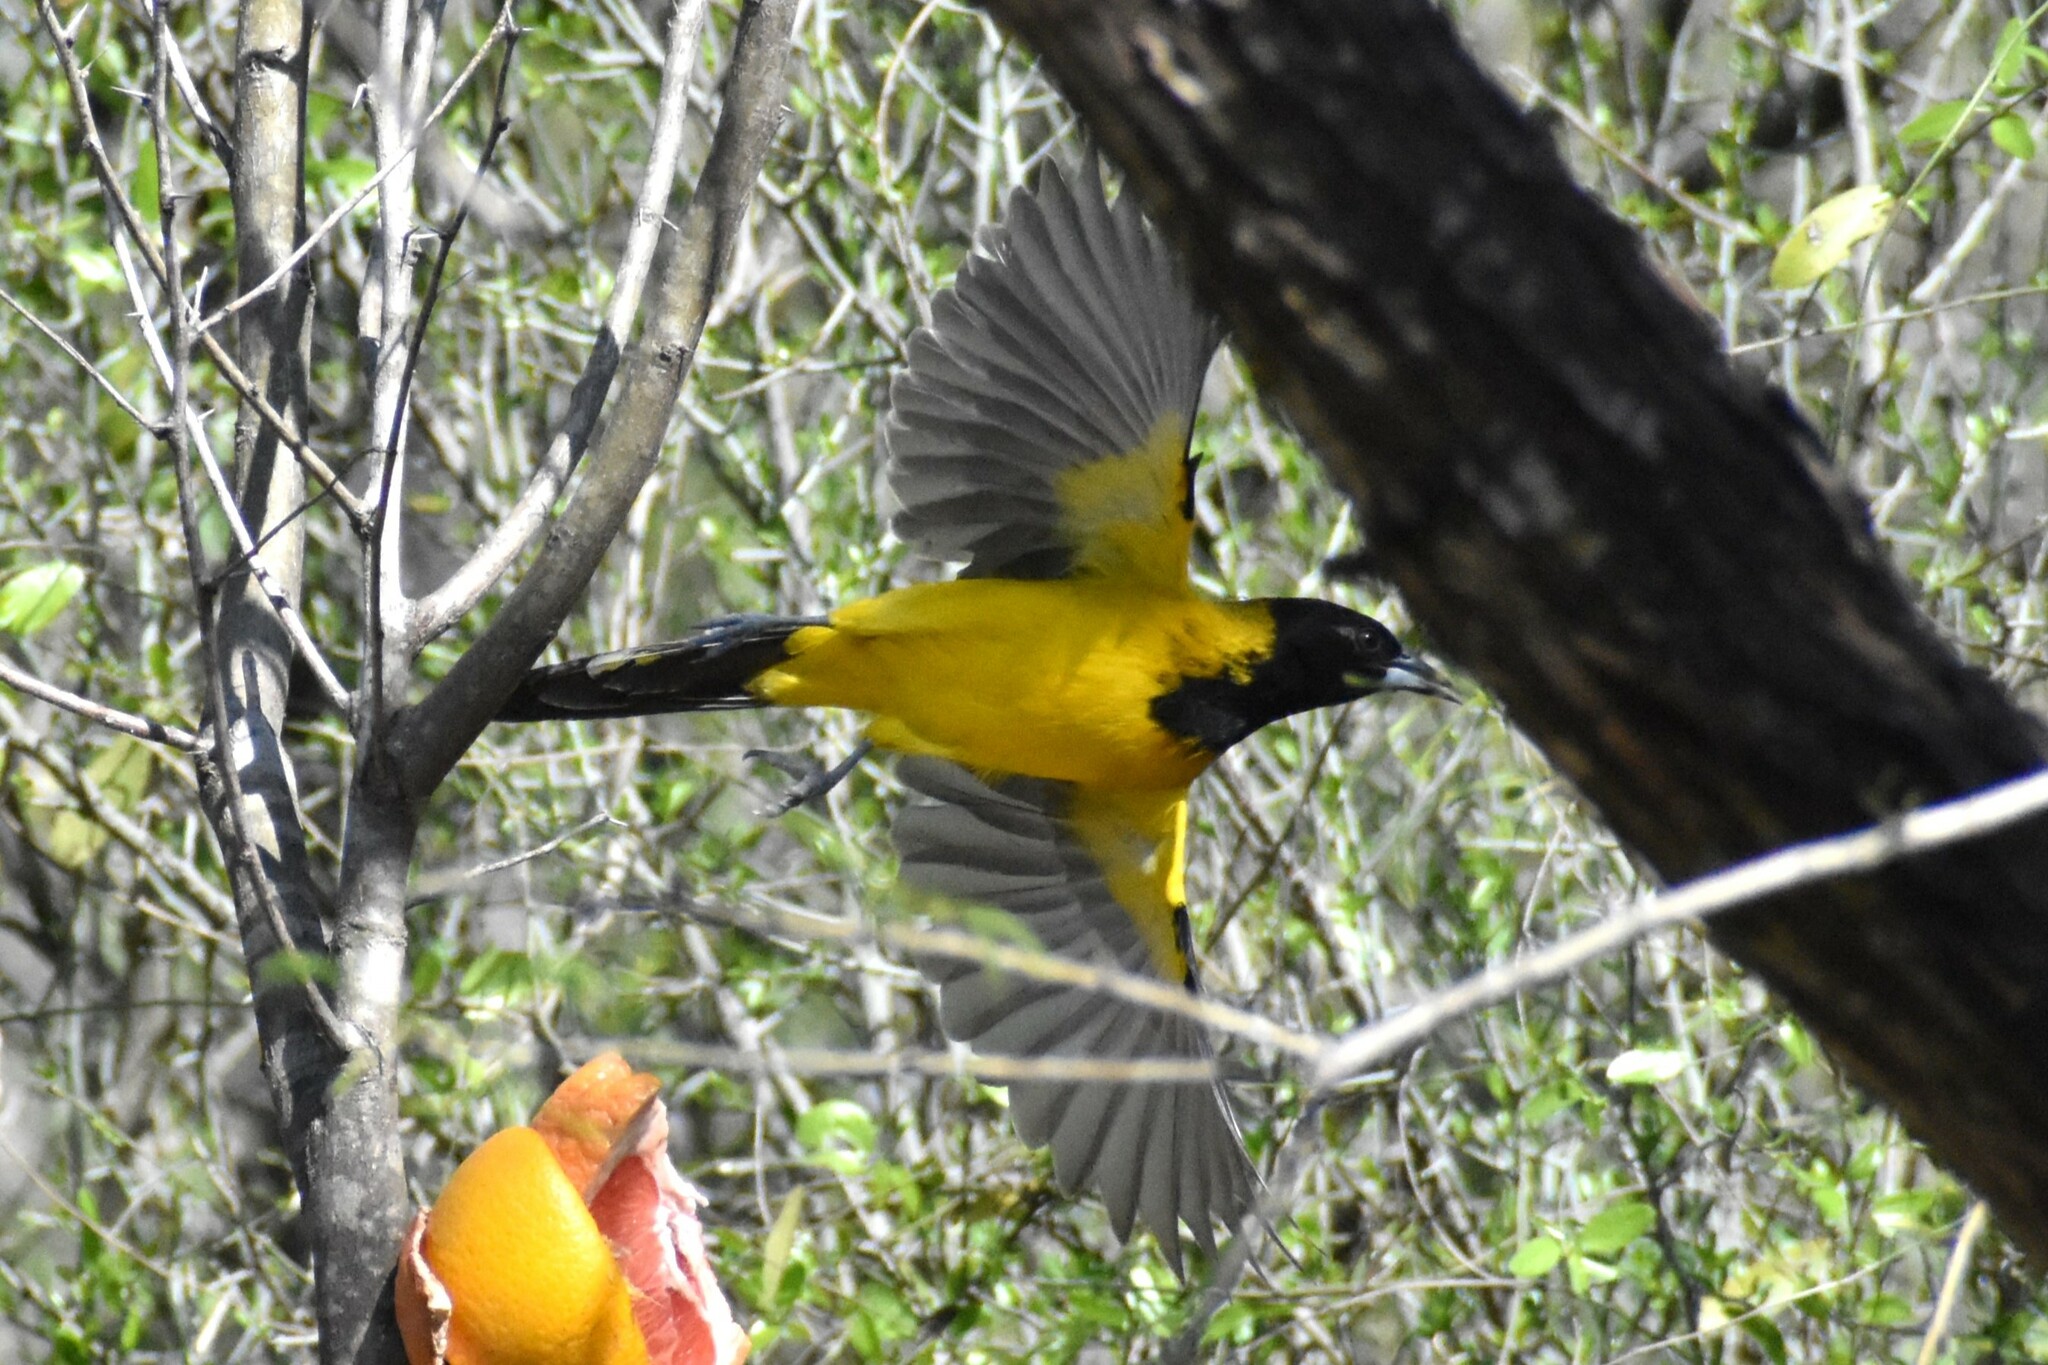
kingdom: Animalia
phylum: Chordata
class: Aves
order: Passeriformes
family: Icteridae
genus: Icterus
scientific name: Icterus graduacauda
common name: Audubon's oriole
